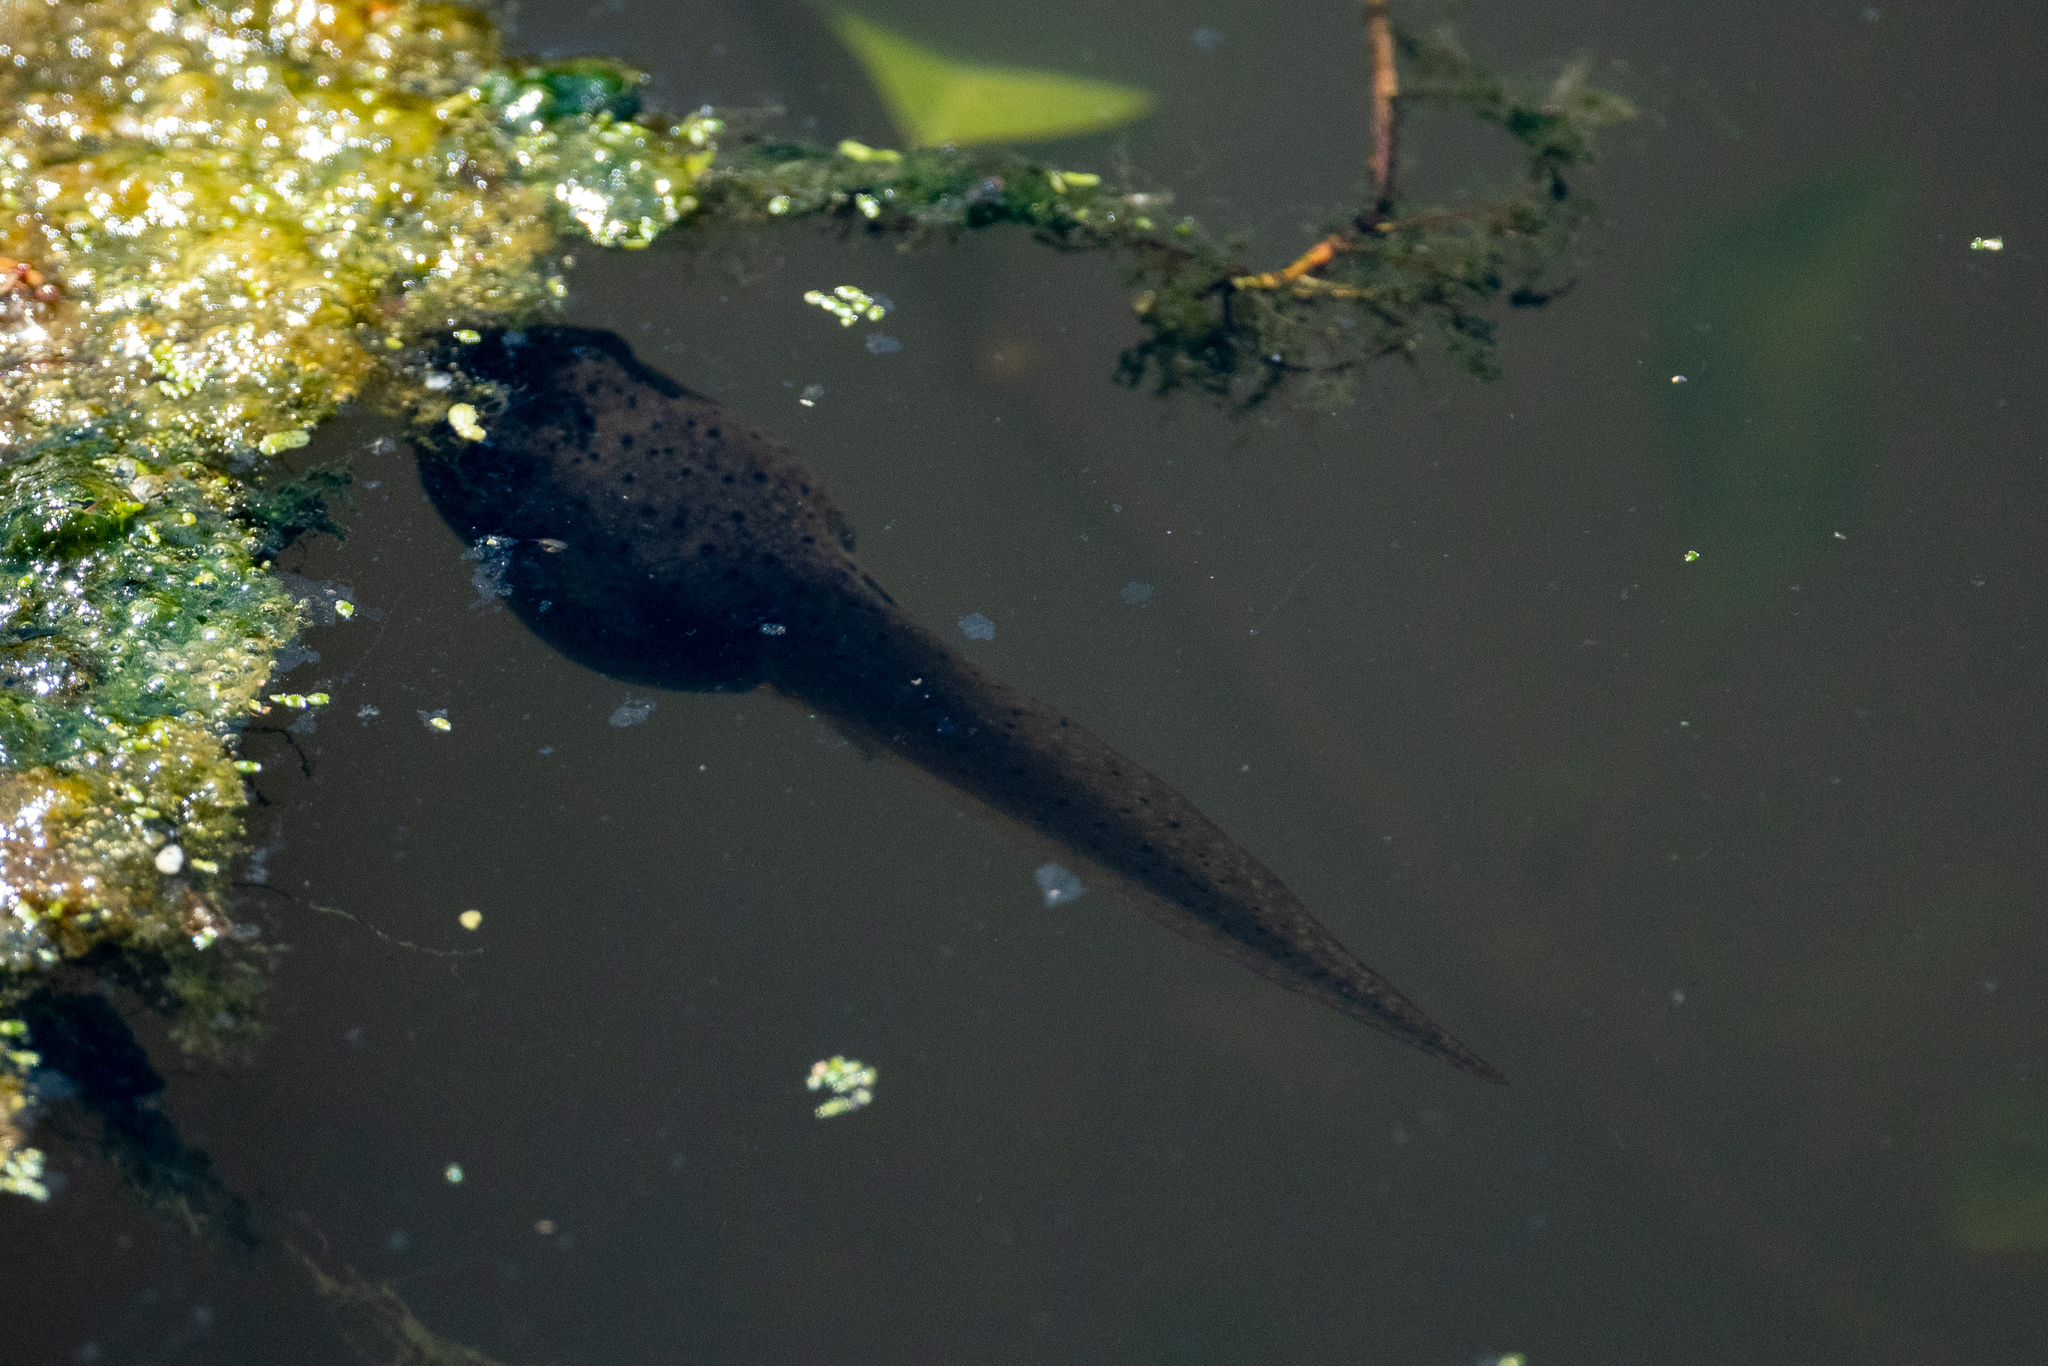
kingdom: Animalia
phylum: Chordata
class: Amphibia
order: Anura
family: Ranidae
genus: Lithobates
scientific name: Lithobates catesbeianus
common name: American bullfrog
